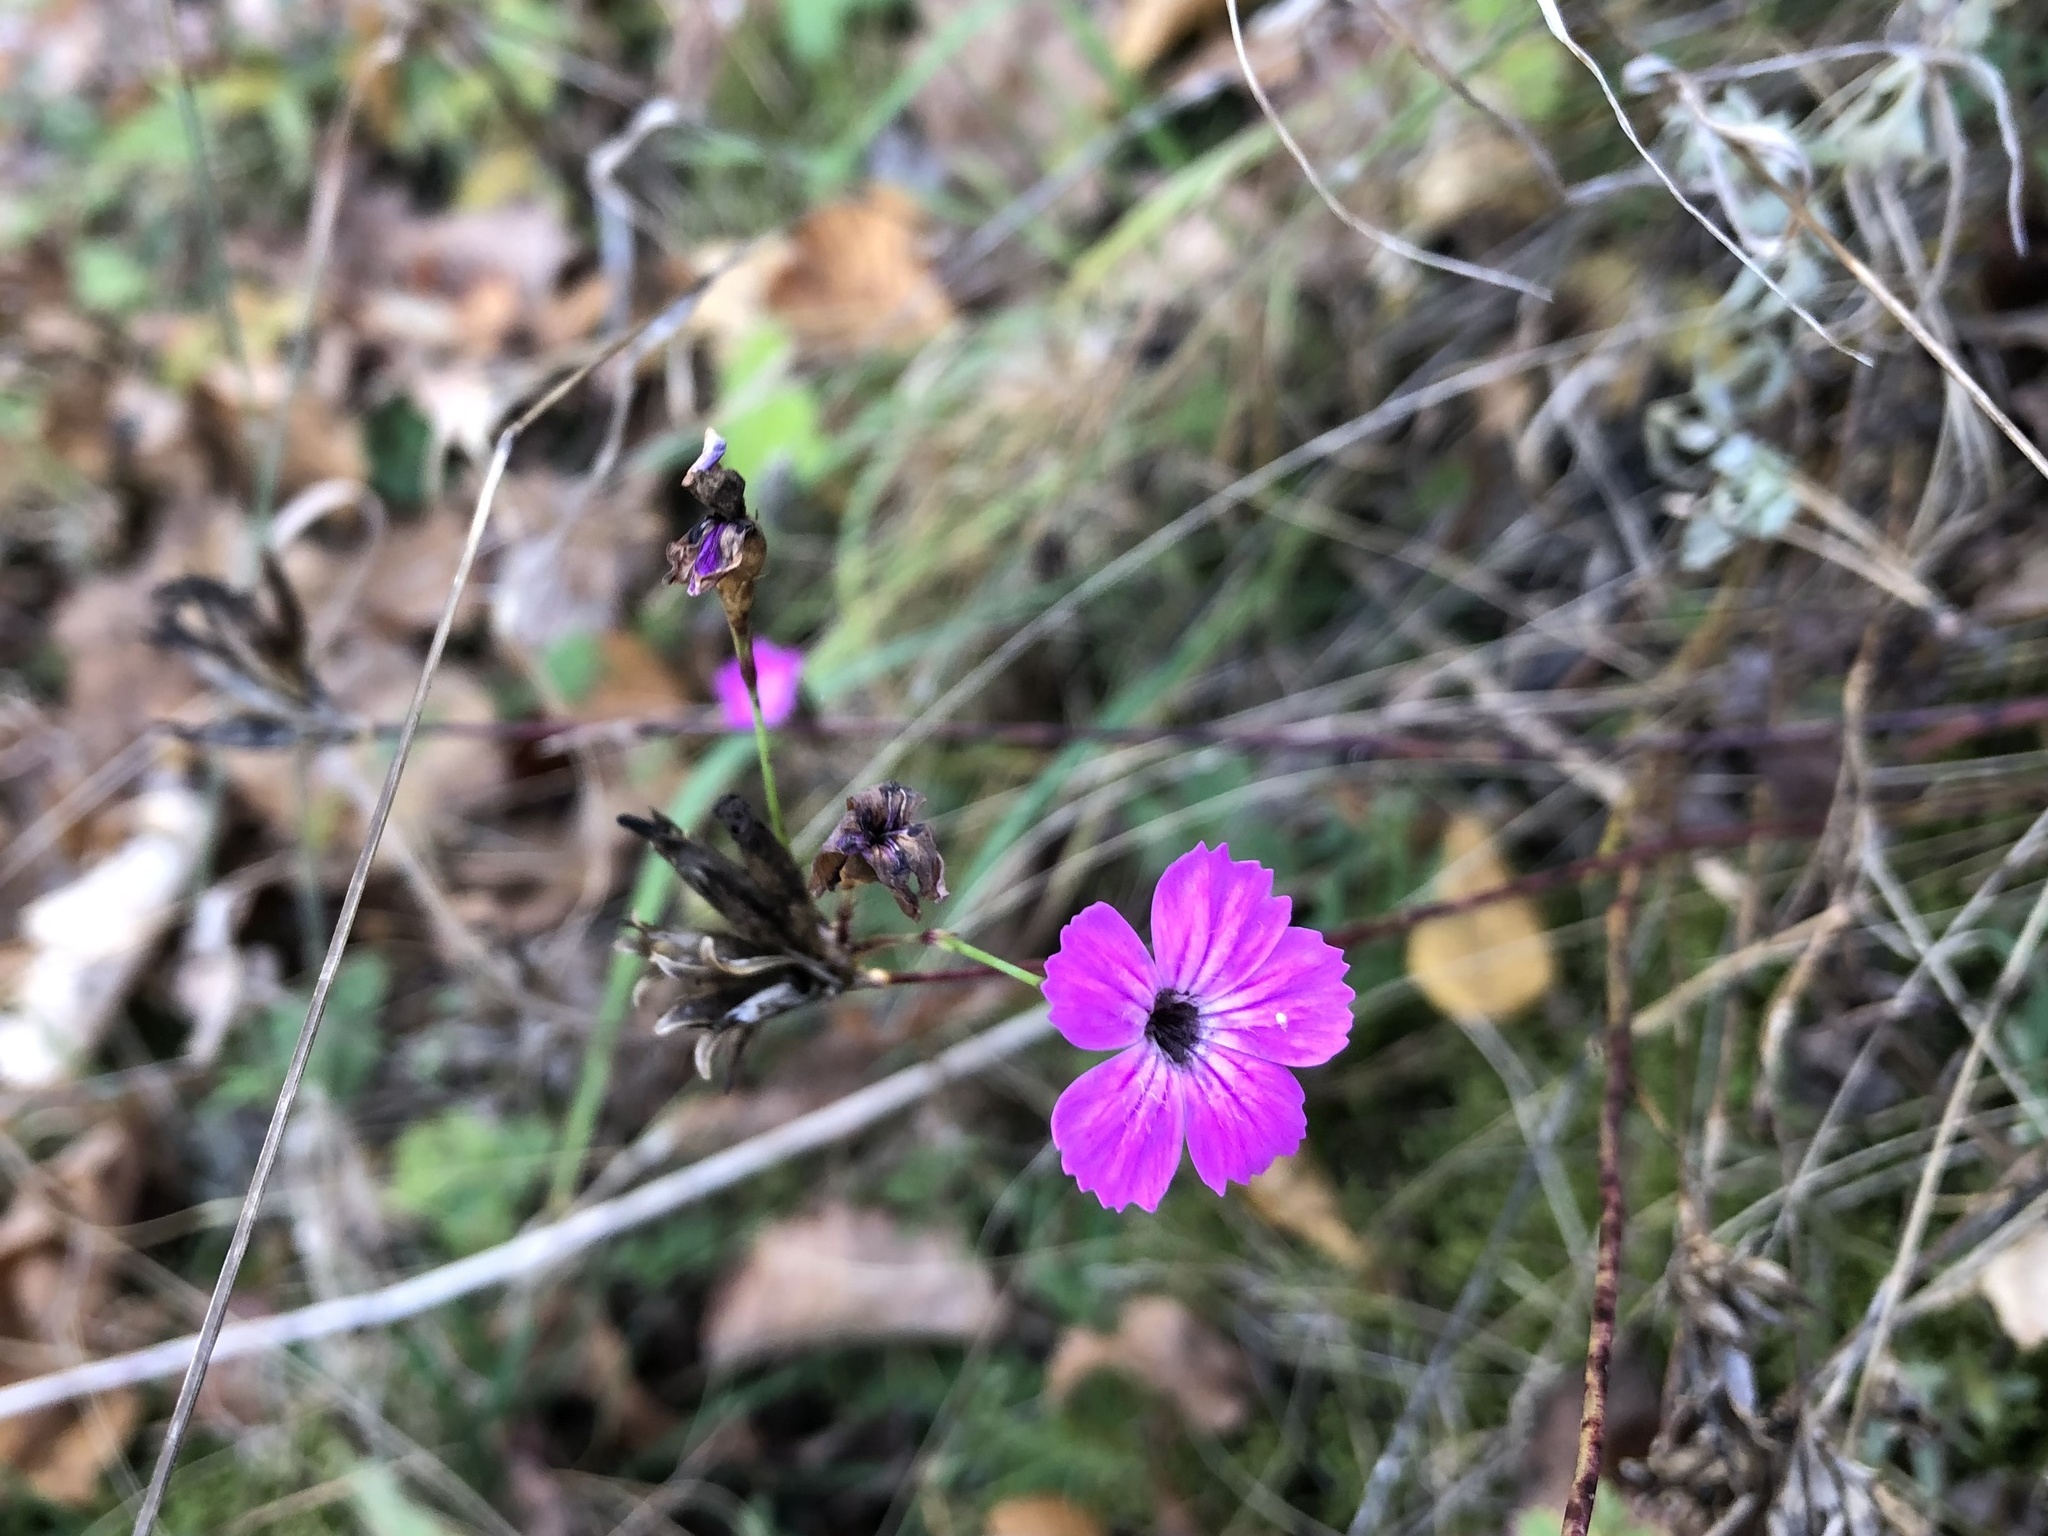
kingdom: Plantae
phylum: Tracheophyta
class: Magnoliopsida
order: Caryophyllales
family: Caryophyllaceae
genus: Dianthus
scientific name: Dianthus carthusianorum
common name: Carthusian pink
